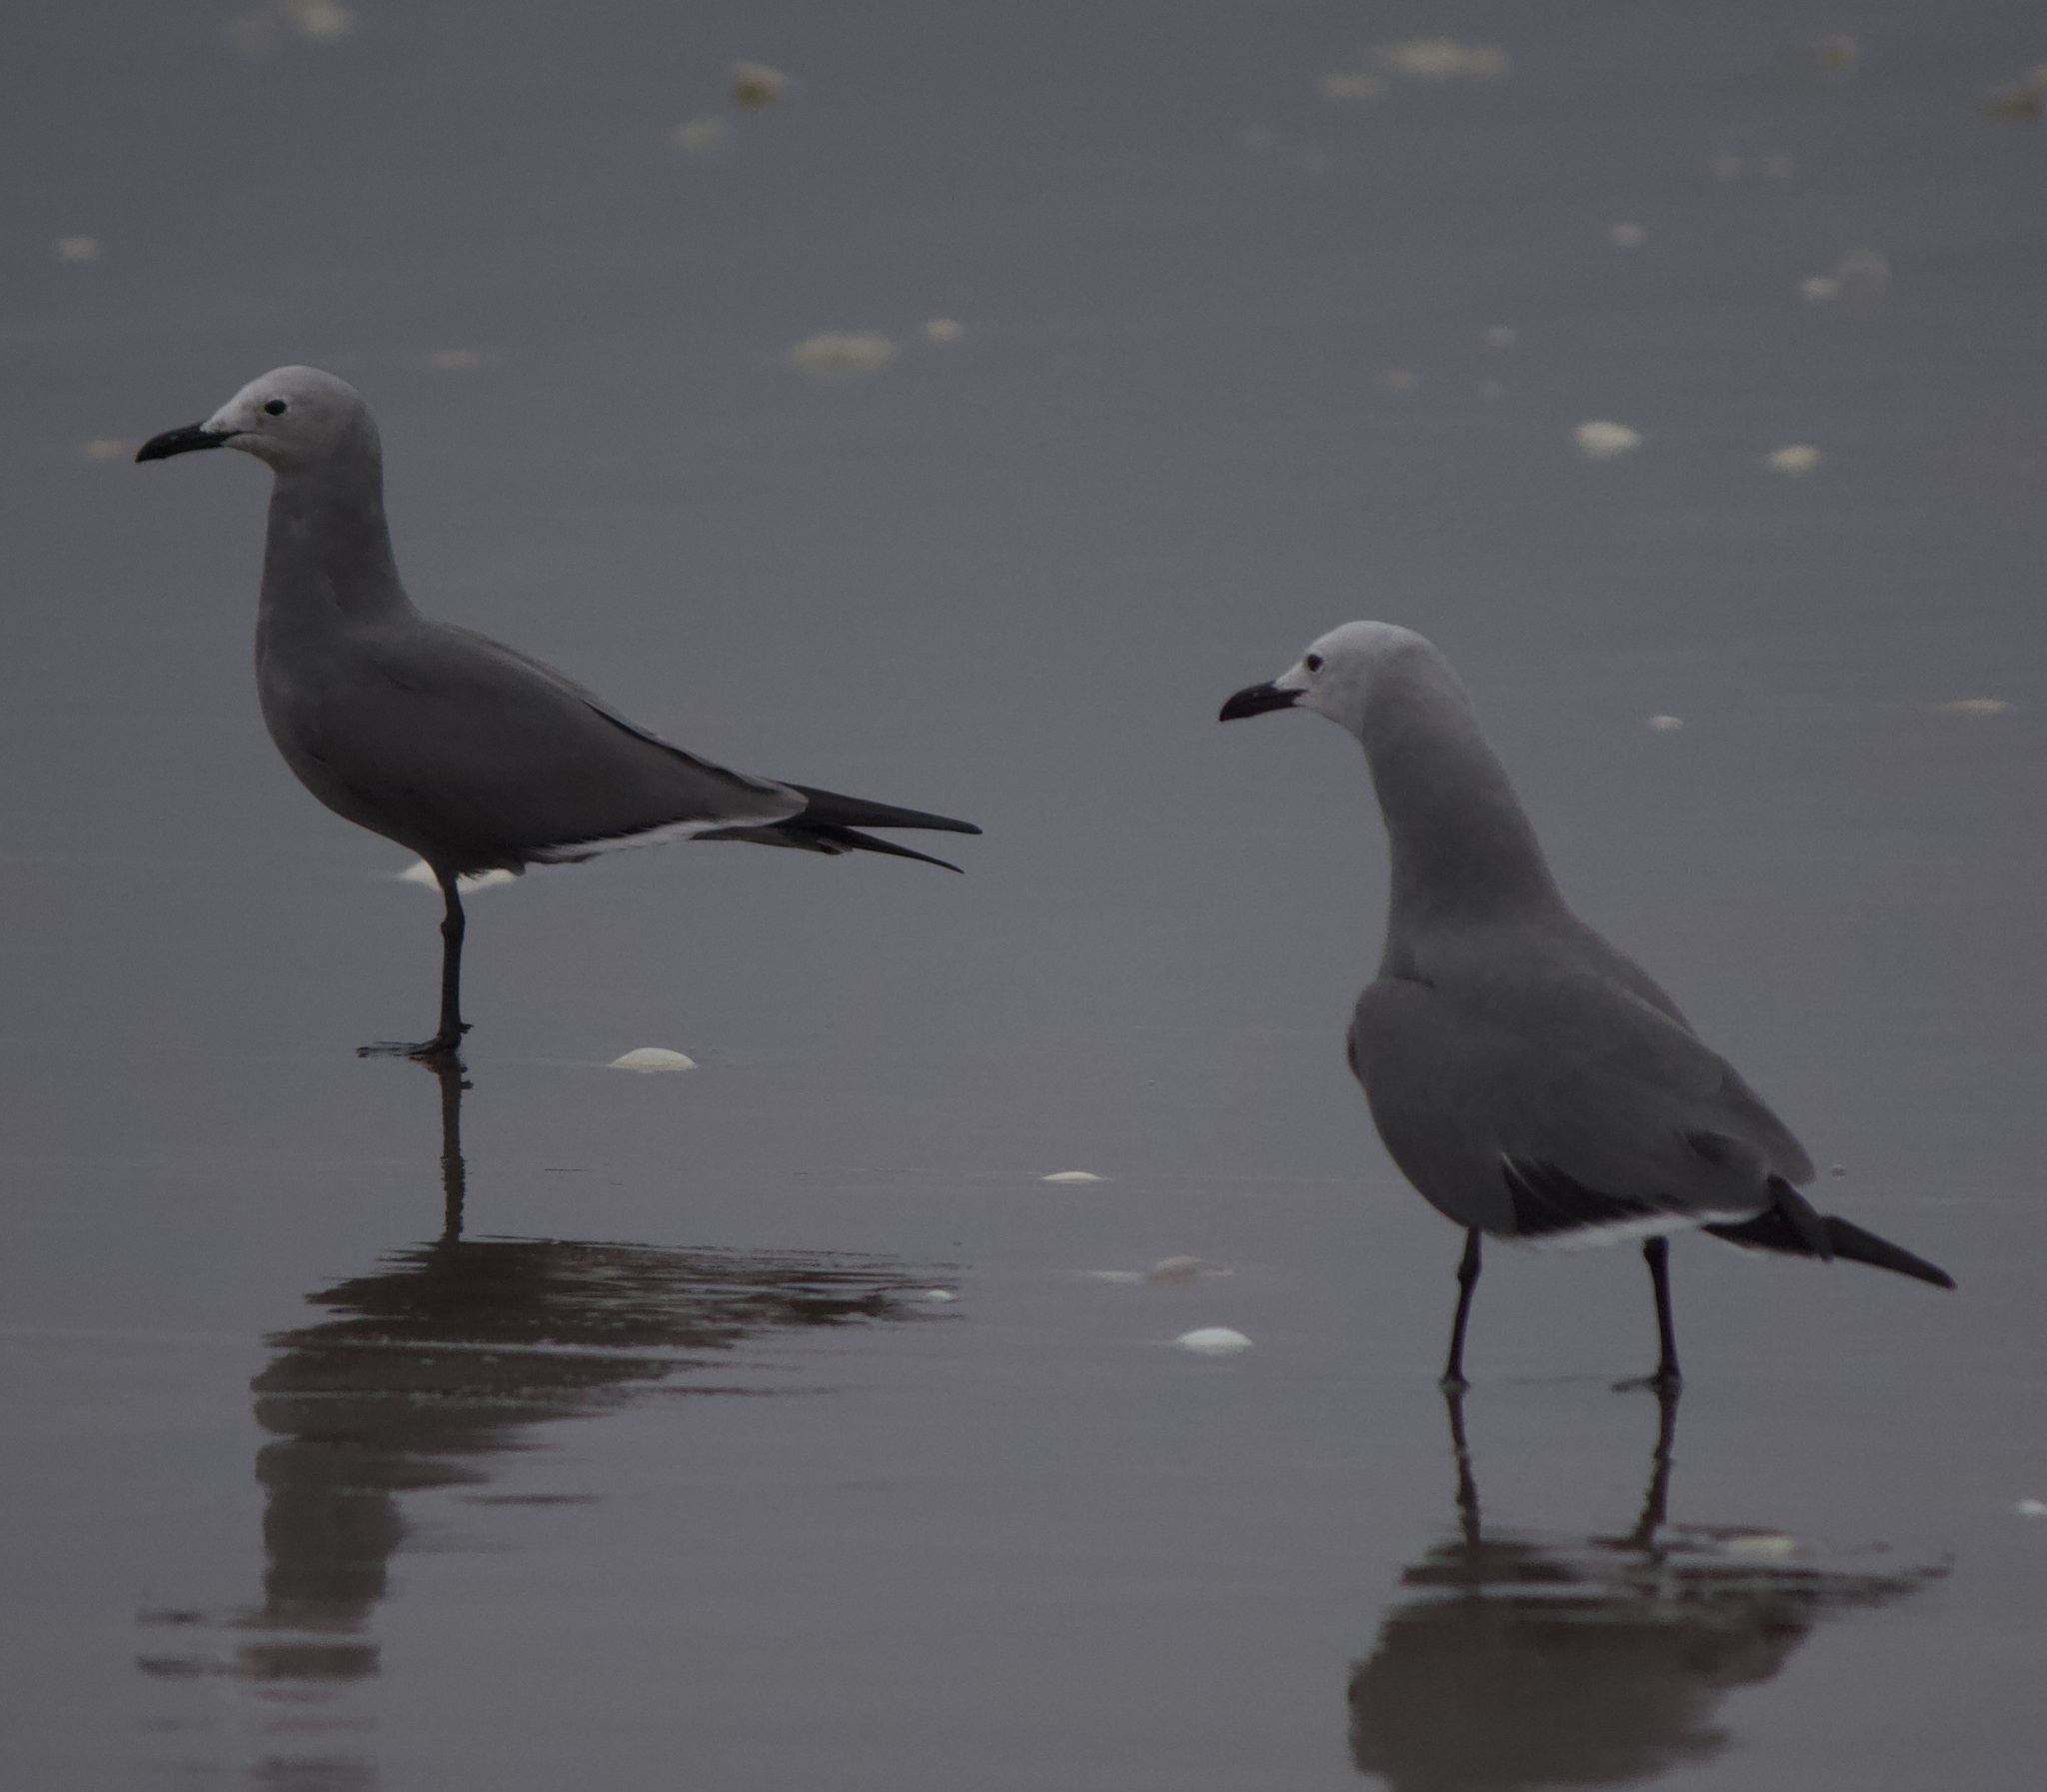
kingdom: Animalia
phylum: Chordata
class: Aves
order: Charadriiformes
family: Laridae
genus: Leucophaeus
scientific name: Leucophaeus modestus
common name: Gray gull
